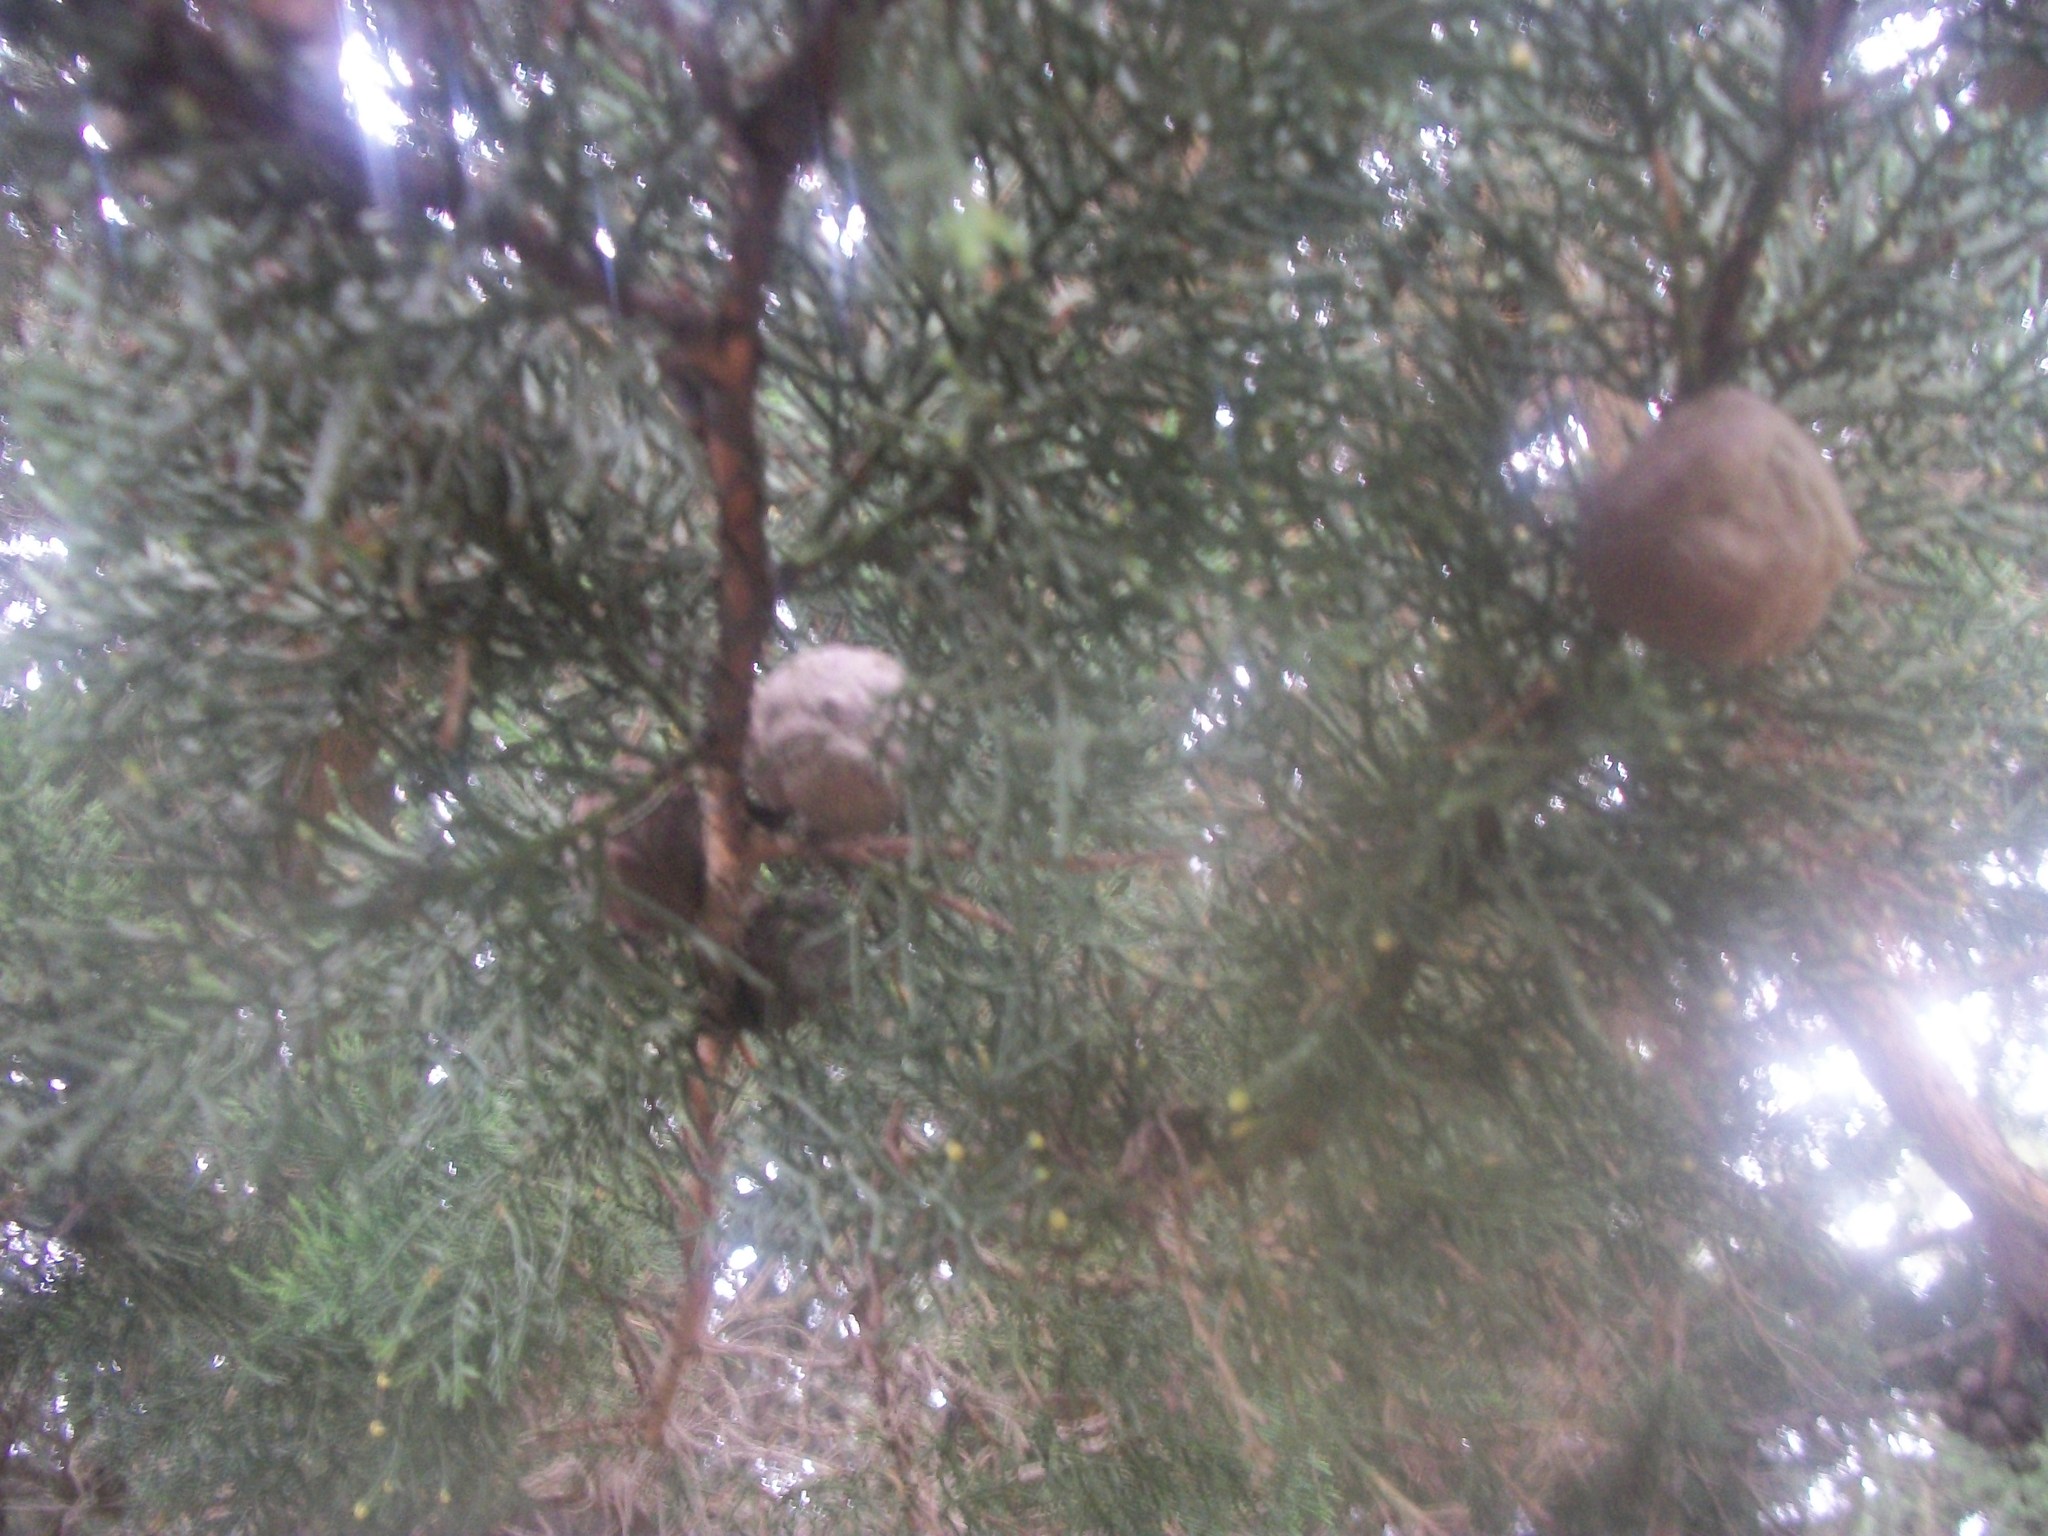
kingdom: Plantae
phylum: Tracheophyta
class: Pinopsida
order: Pinales
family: Cupressaceae
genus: Cupressus
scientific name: Cupressus macrocarpa
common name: Monterey cypress
